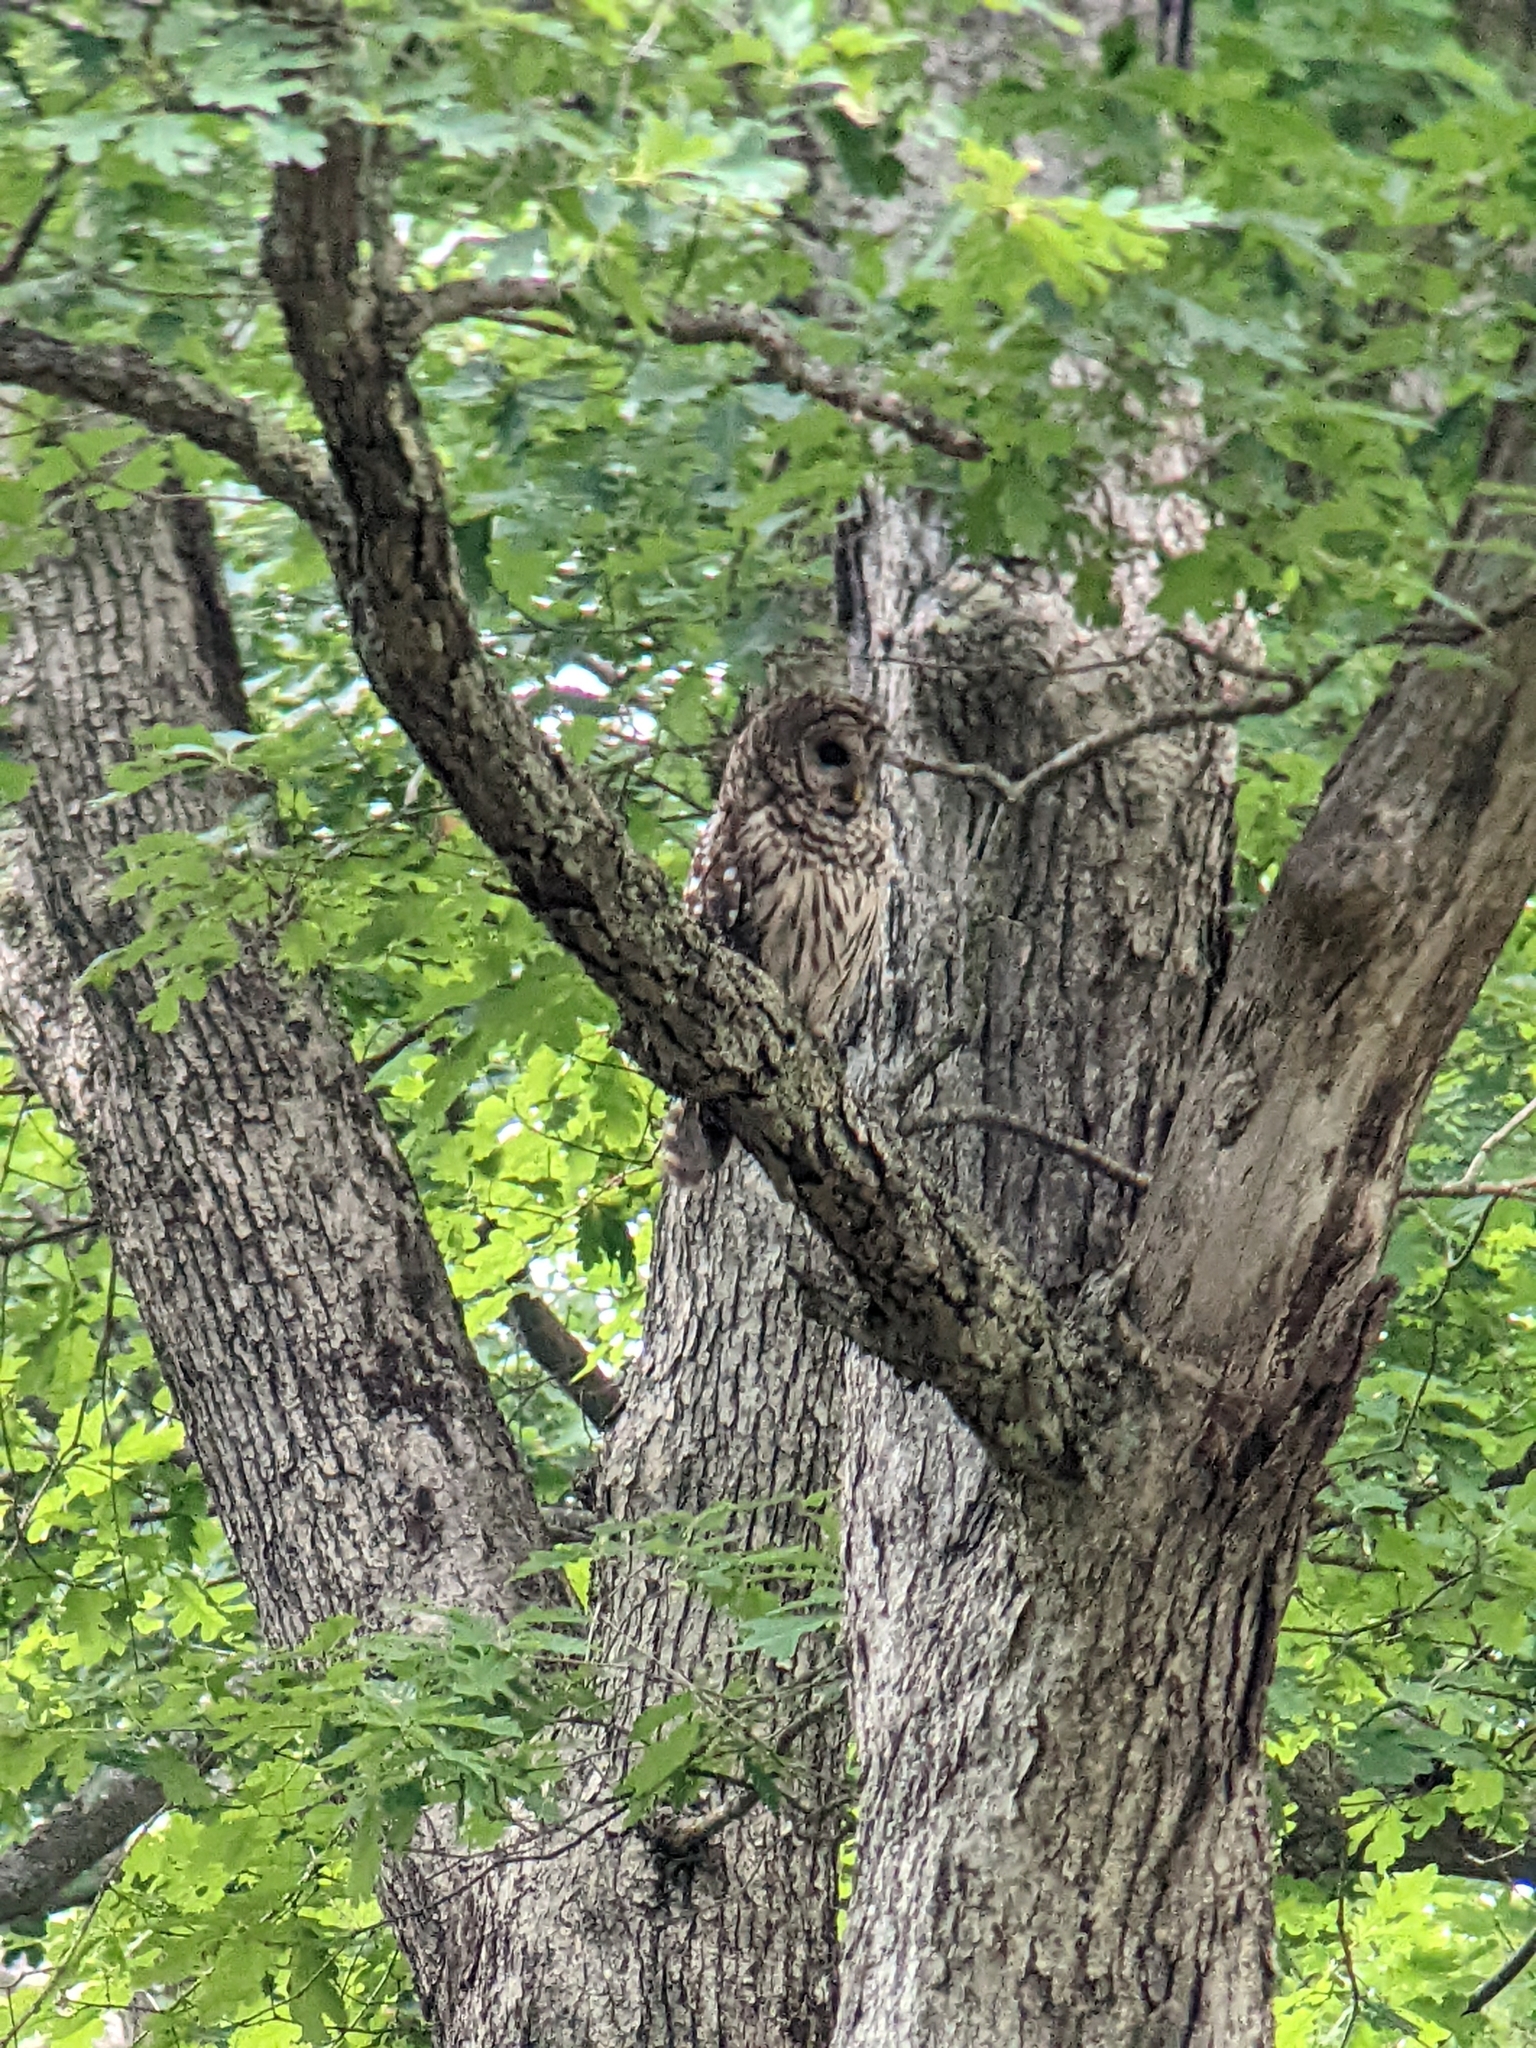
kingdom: Animalia
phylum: Chordata
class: Aves
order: Strigiformes
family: Strigidae
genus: Strix
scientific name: Strix varia
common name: Barred owl
